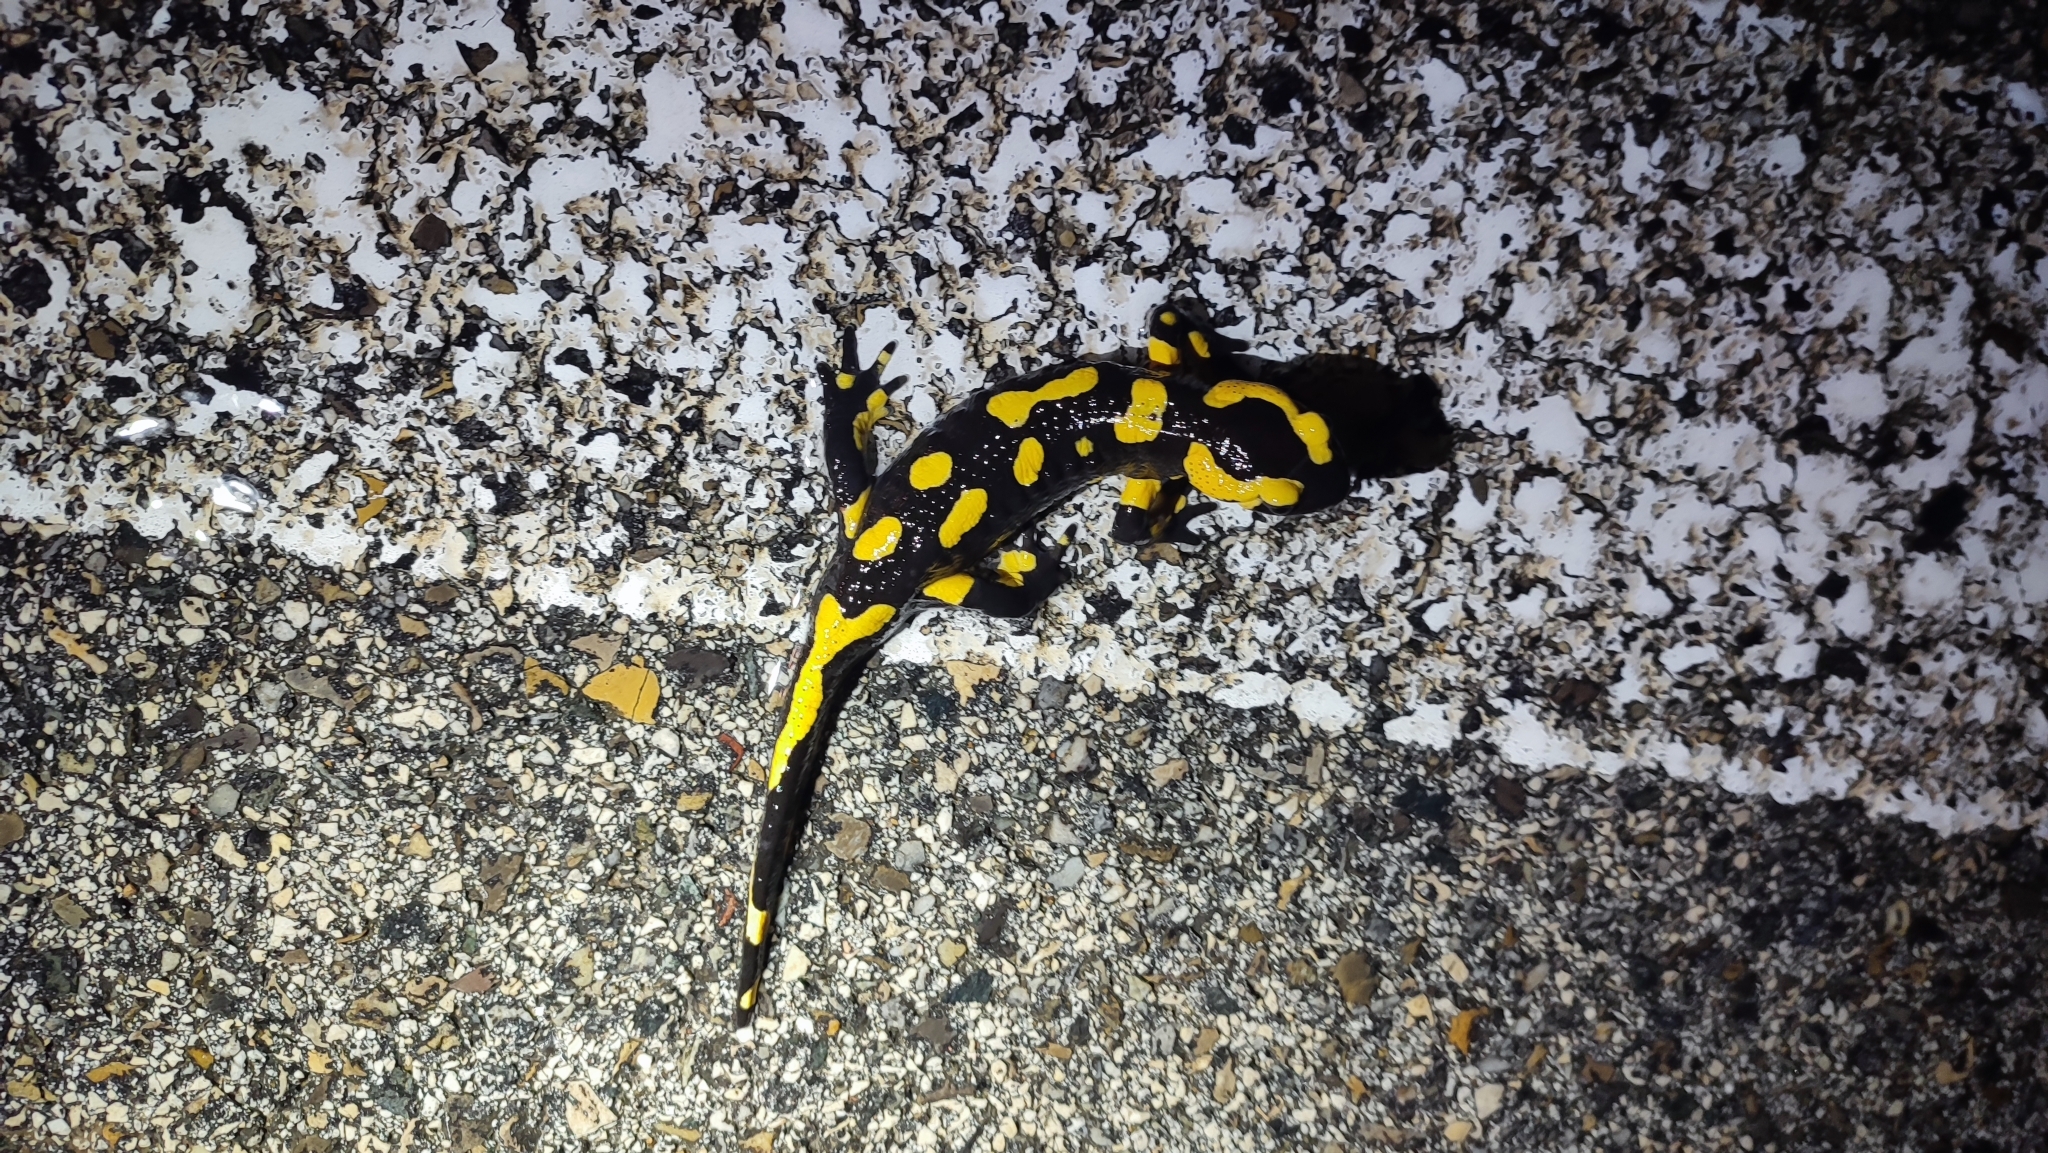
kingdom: Animalia
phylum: Chordata
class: Amphibia
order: Caudata
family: Salamandridae
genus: Salamandra
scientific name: Salamandra salamandra
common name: Fire salamander
